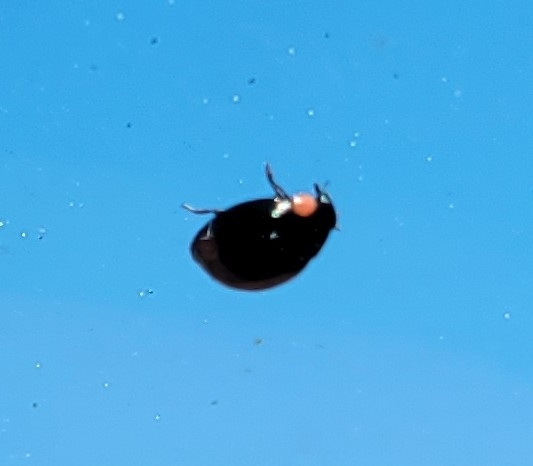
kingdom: Animalia
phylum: Arthropoda
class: Insecta
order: Coleoptera
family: Coccinellidae
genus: Hyperaspis
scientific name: Hyperaspis bigeminata
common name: Bigeminate sigil lady beetle
